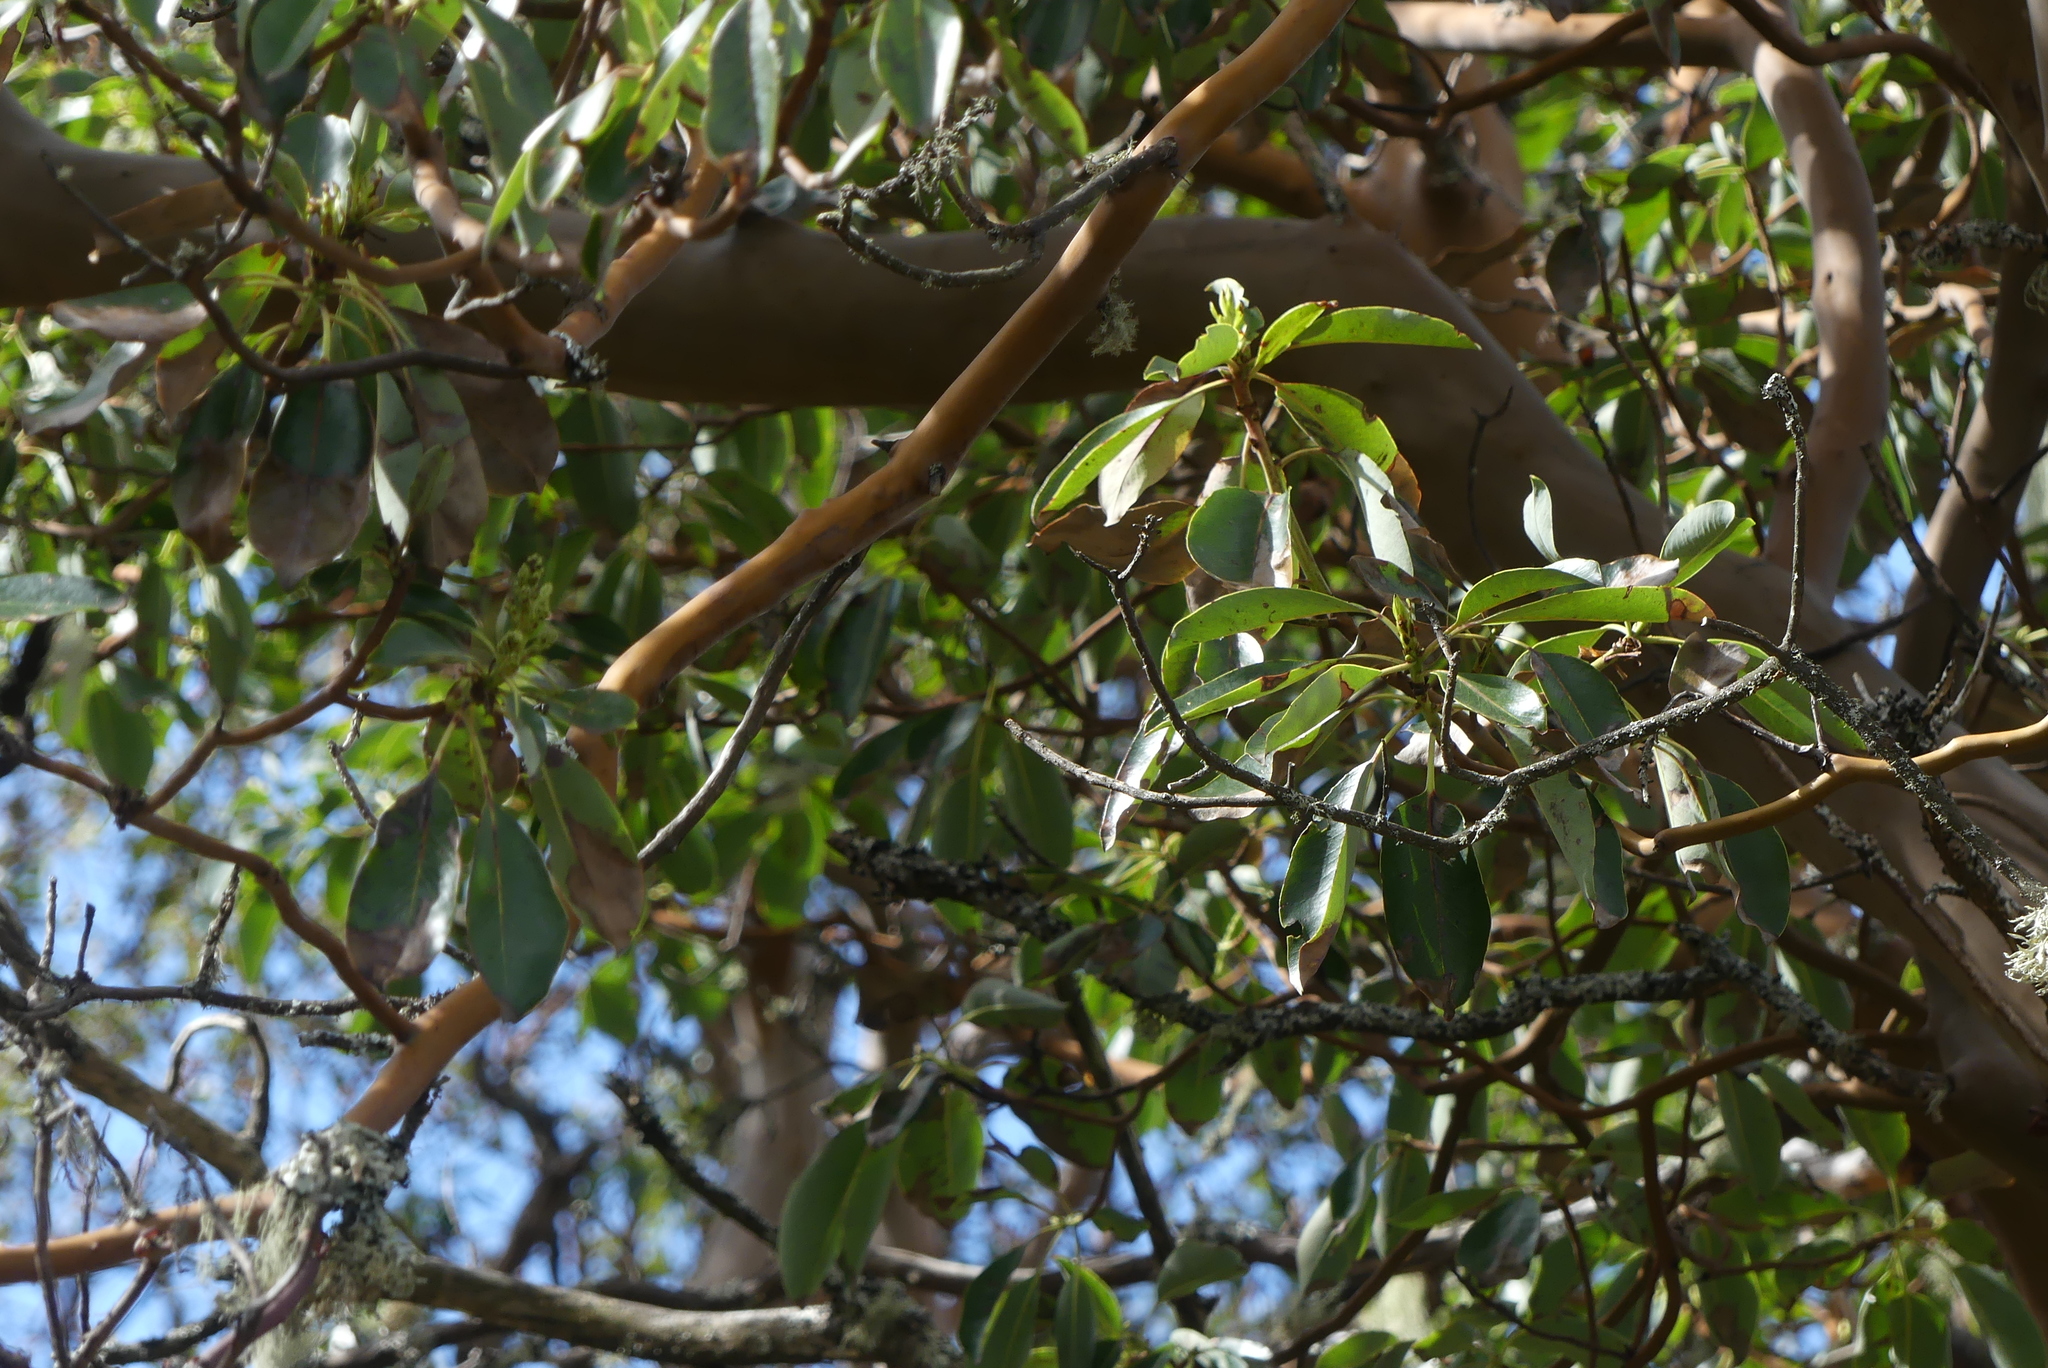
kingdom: Plantae
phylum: Tracheophyta
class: Magnoliopsida
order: Ericales
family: Ericaceae
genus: Arbutus
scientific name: Arbutus menziesii
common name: Pacific madrone
